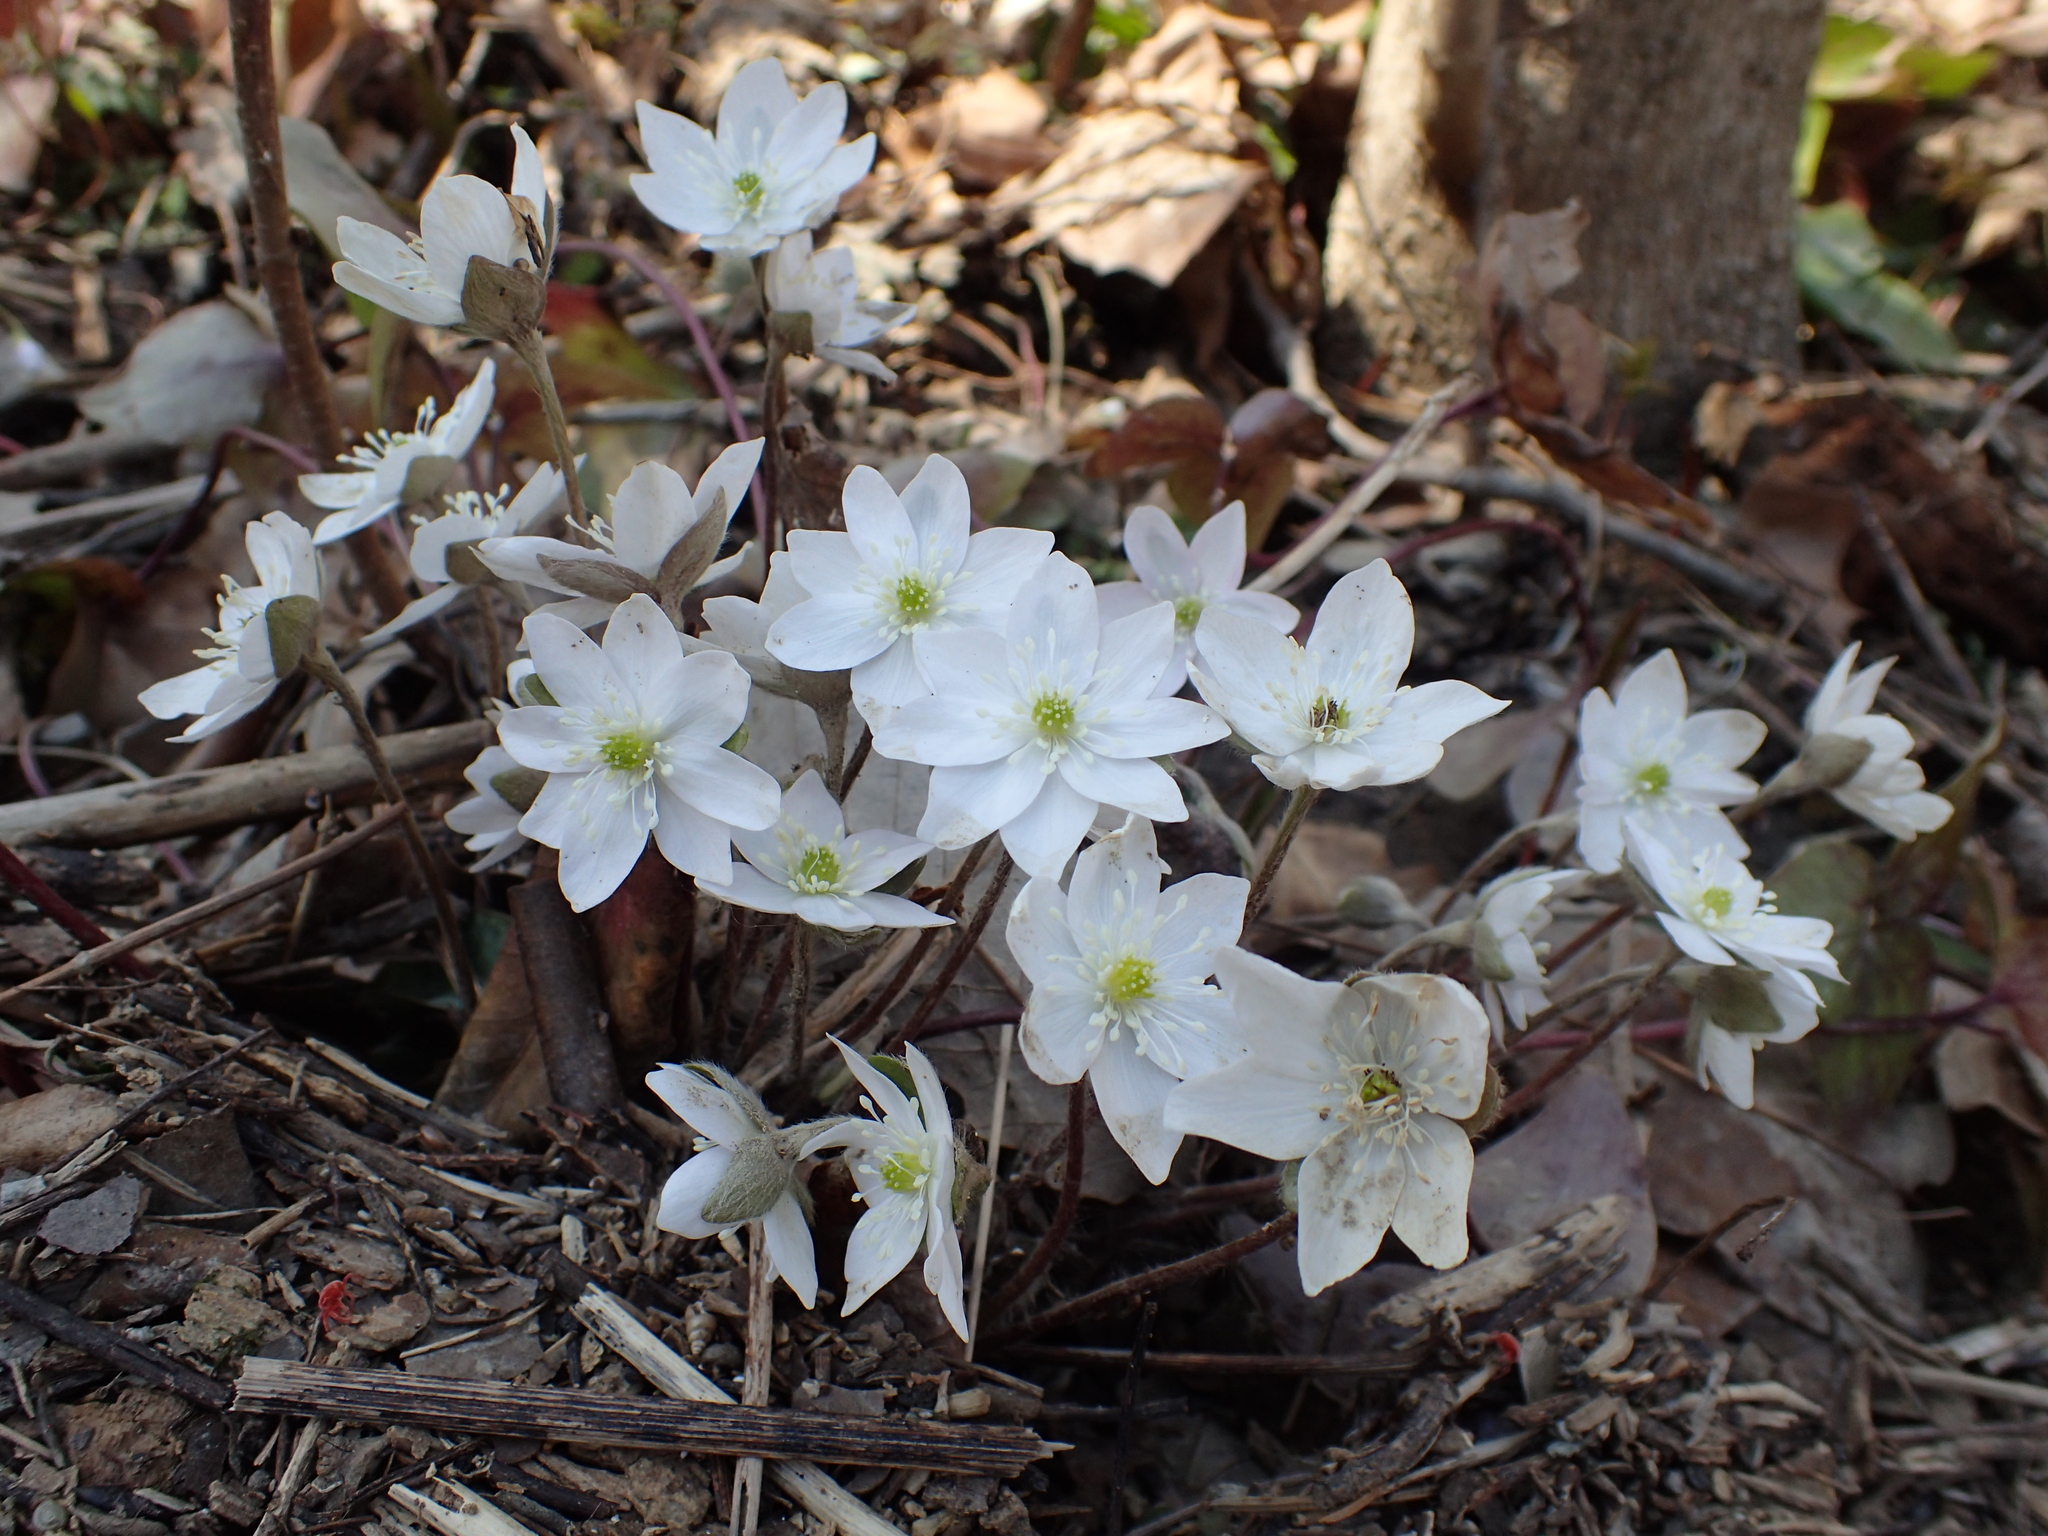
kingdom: Plantae
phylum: Tracheophyta
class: Magnoliopsida
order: Ranunculales
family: Ranunculaceae
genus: Hepatica
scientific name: Hepatica acutiloba
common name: Sharp-lobed hepatica
